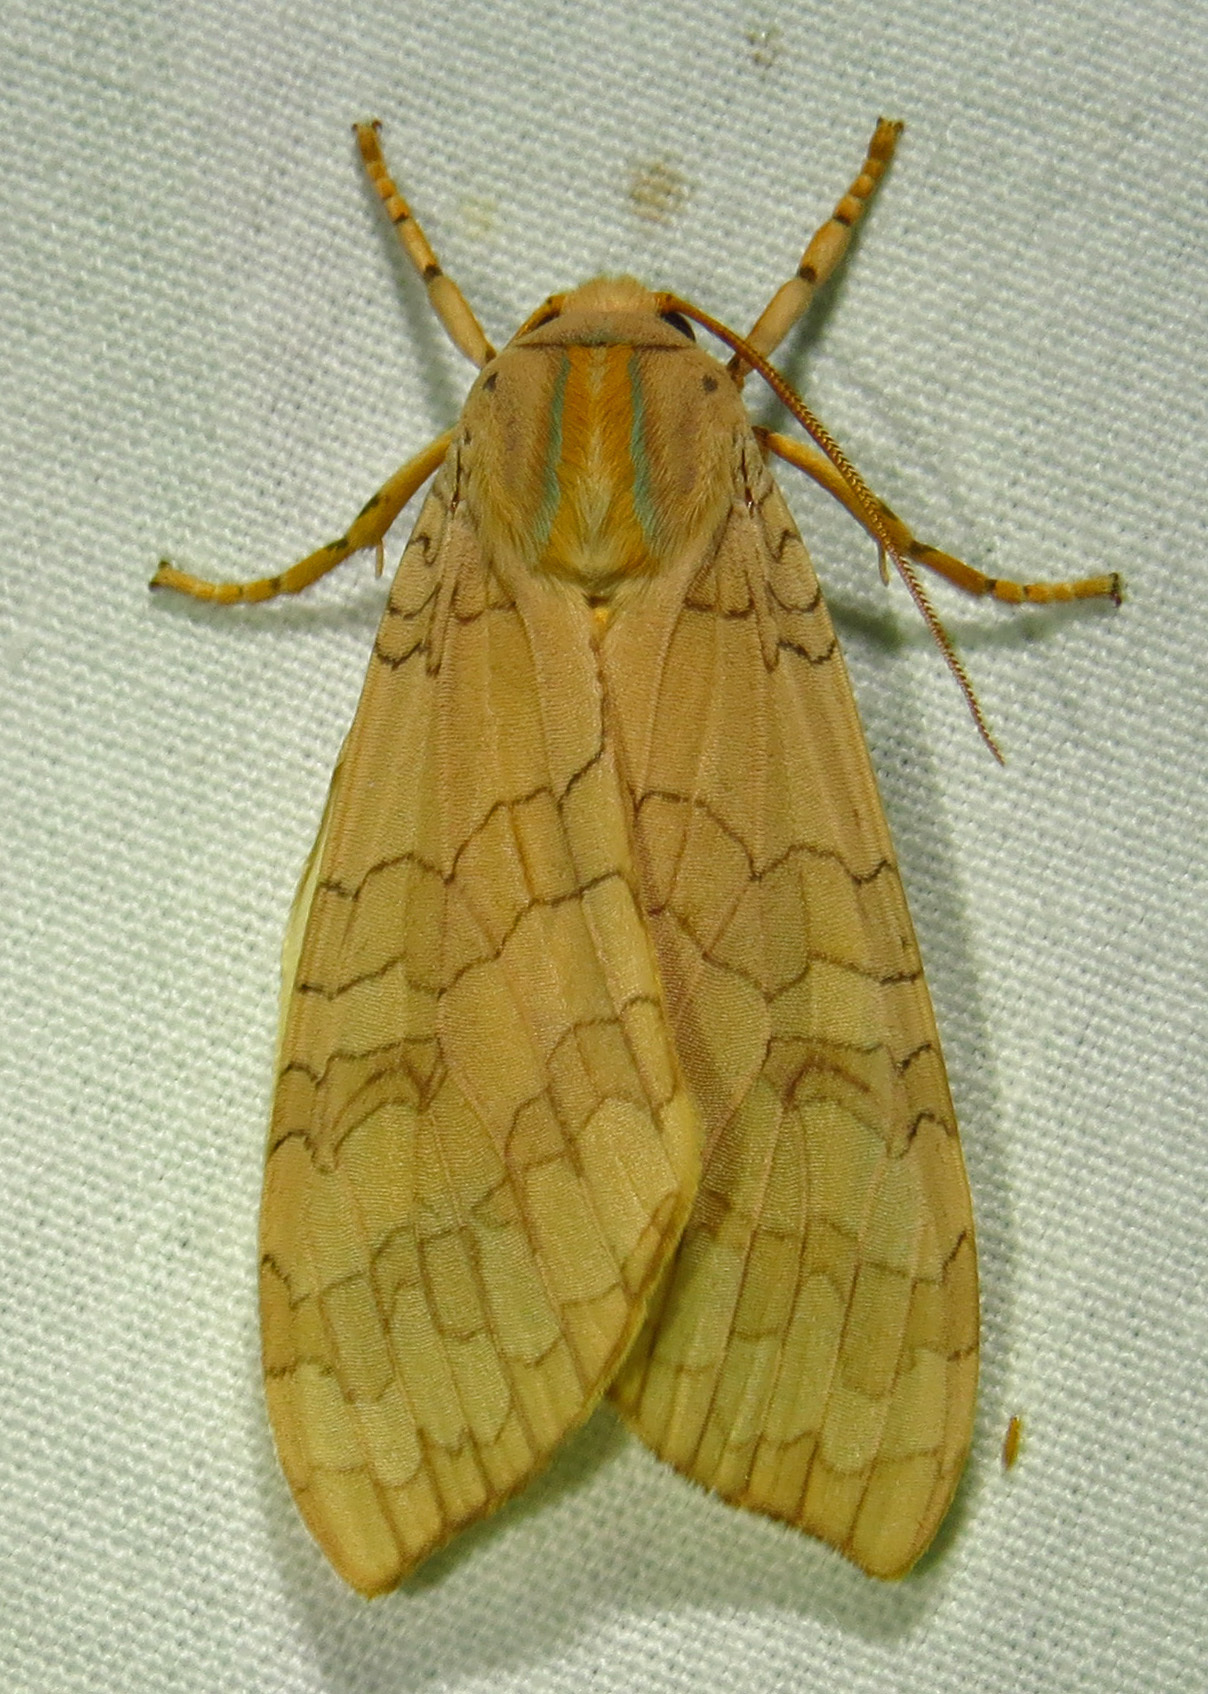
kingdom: Animalia
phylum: Arthropoda
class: Insecta
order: Lepidoptera
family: Erebidae
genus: Halysidota
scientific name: Halysidota
